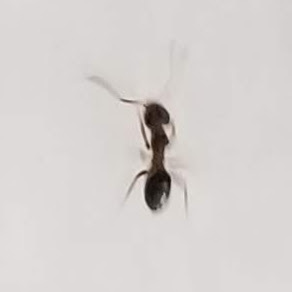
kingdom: Animalia
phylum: Arthropoda
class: Insecta
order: Hymenoptera
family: Formicidae
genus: Linepithema
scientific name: Linepithema humile
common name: Argentine ant
